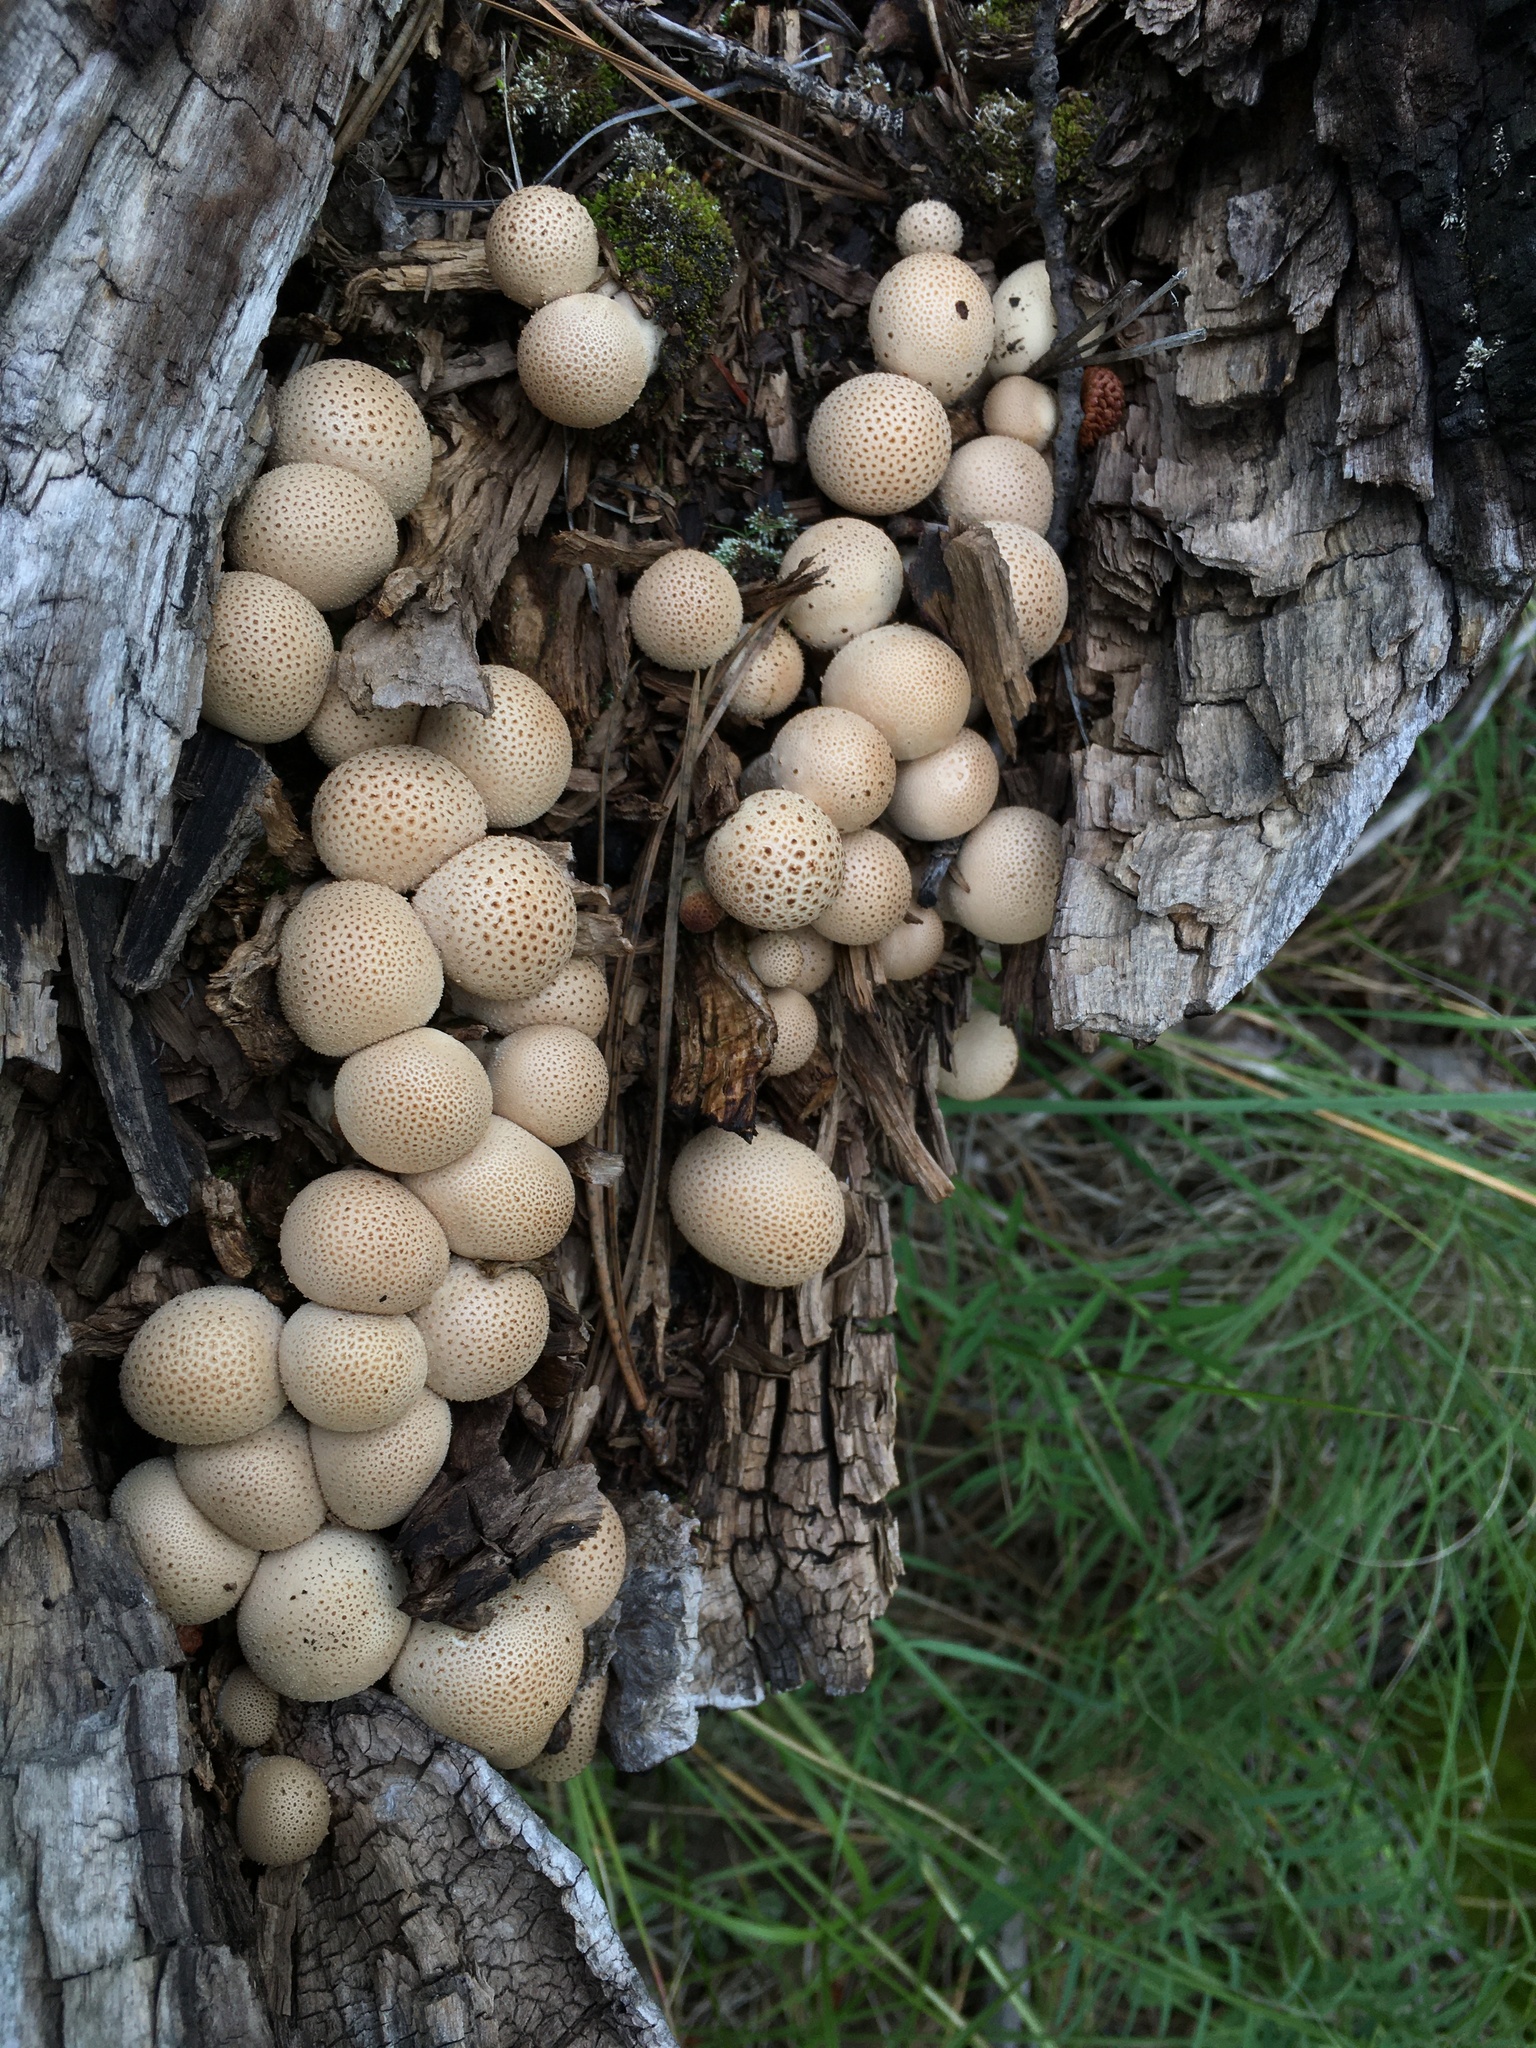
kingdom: Fungi
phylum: Basidiomycota
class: Agaricomycetes
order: Agaricales
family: Lycoperdaceae
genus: Apioperdon
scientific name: Apioperdon pyriforme
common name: Pear-shaped puffball
